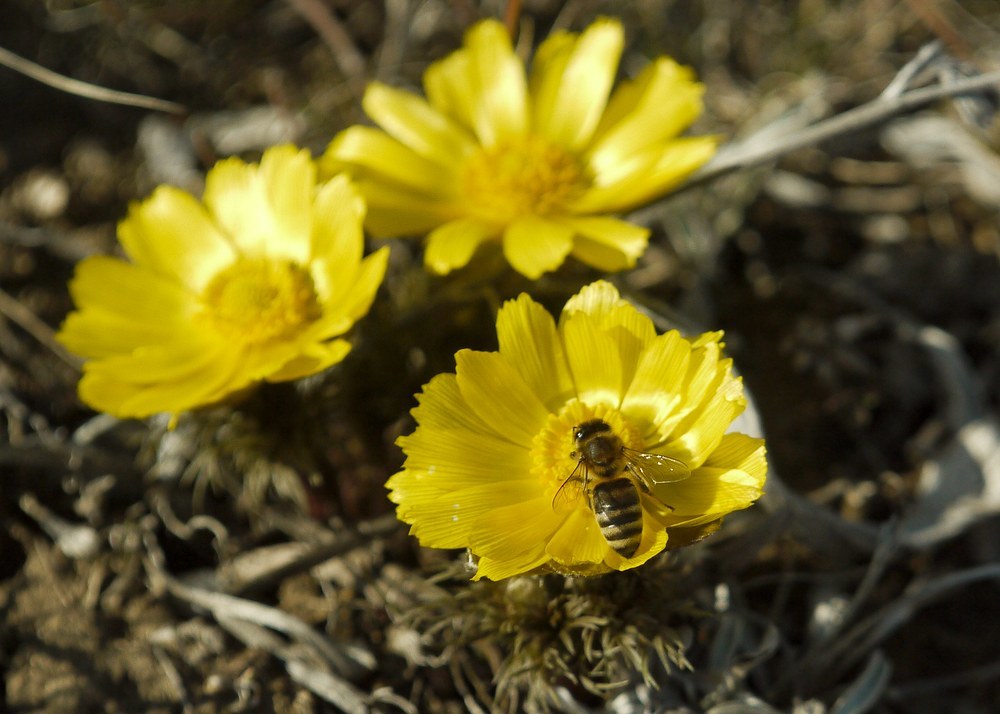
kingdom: Plantae
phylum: Tracheophyta
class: Magnoliopsida
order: Ranunculales
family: Ranunculaceae
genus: Adonis
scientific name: Adonis volgensis
